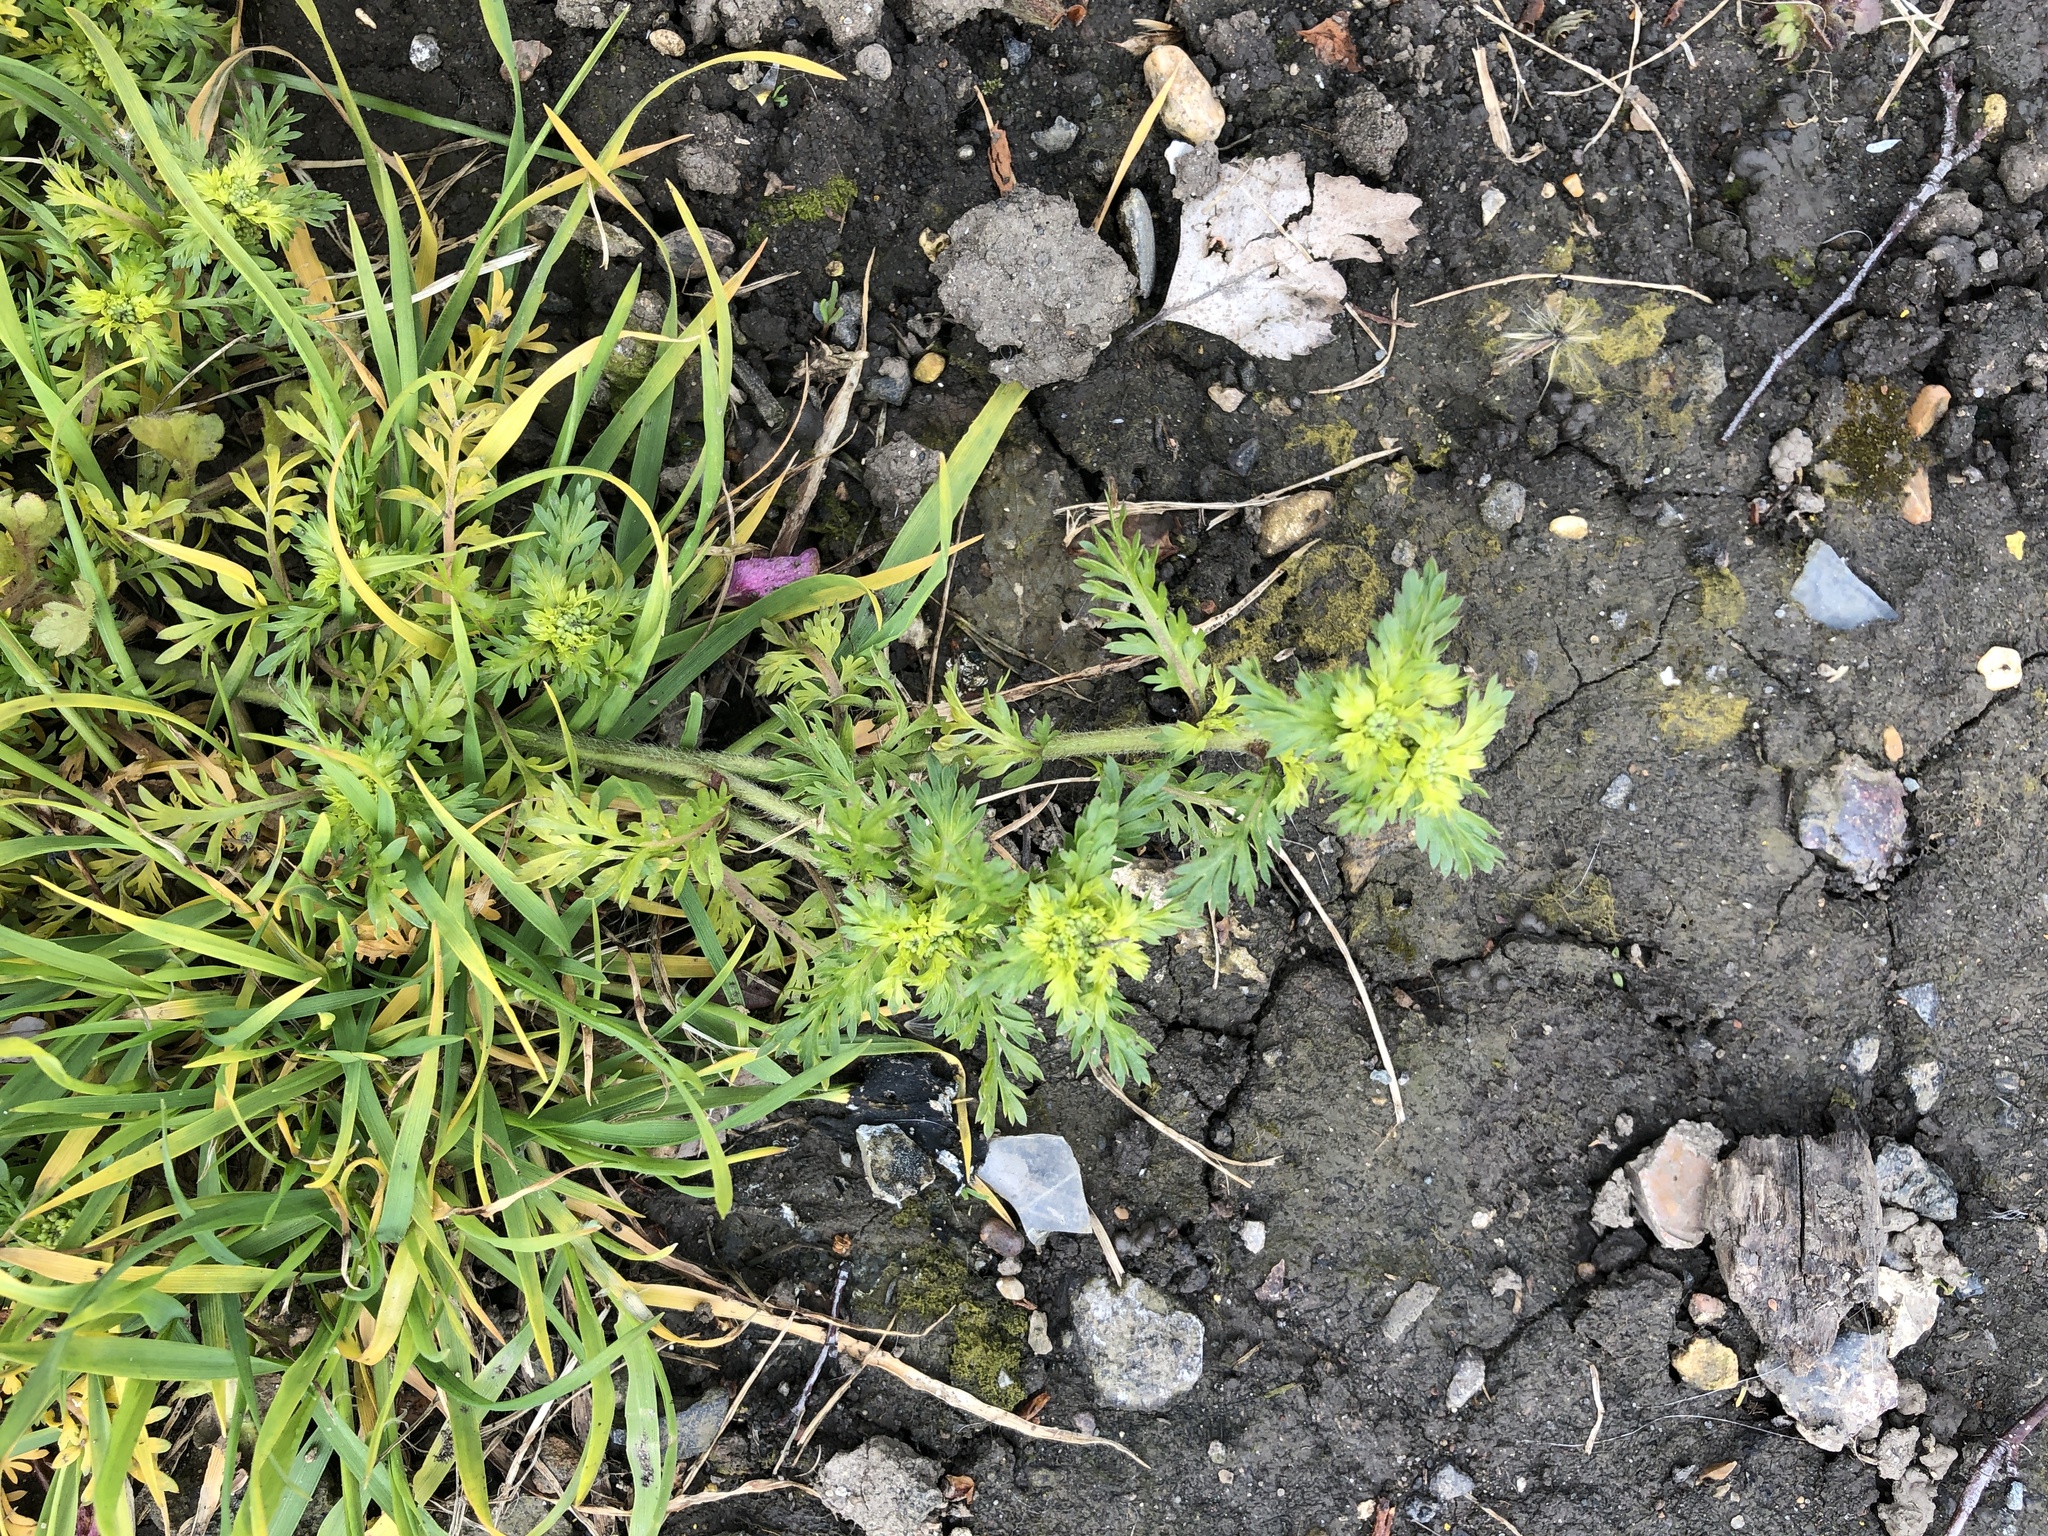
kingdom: Plantae
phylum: Tracheophyta
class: Magnoliopsida
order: Brassicales
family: Brassicaceae
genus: Lepidium
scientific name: Lepidium didymum
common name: Lesser swinecress
